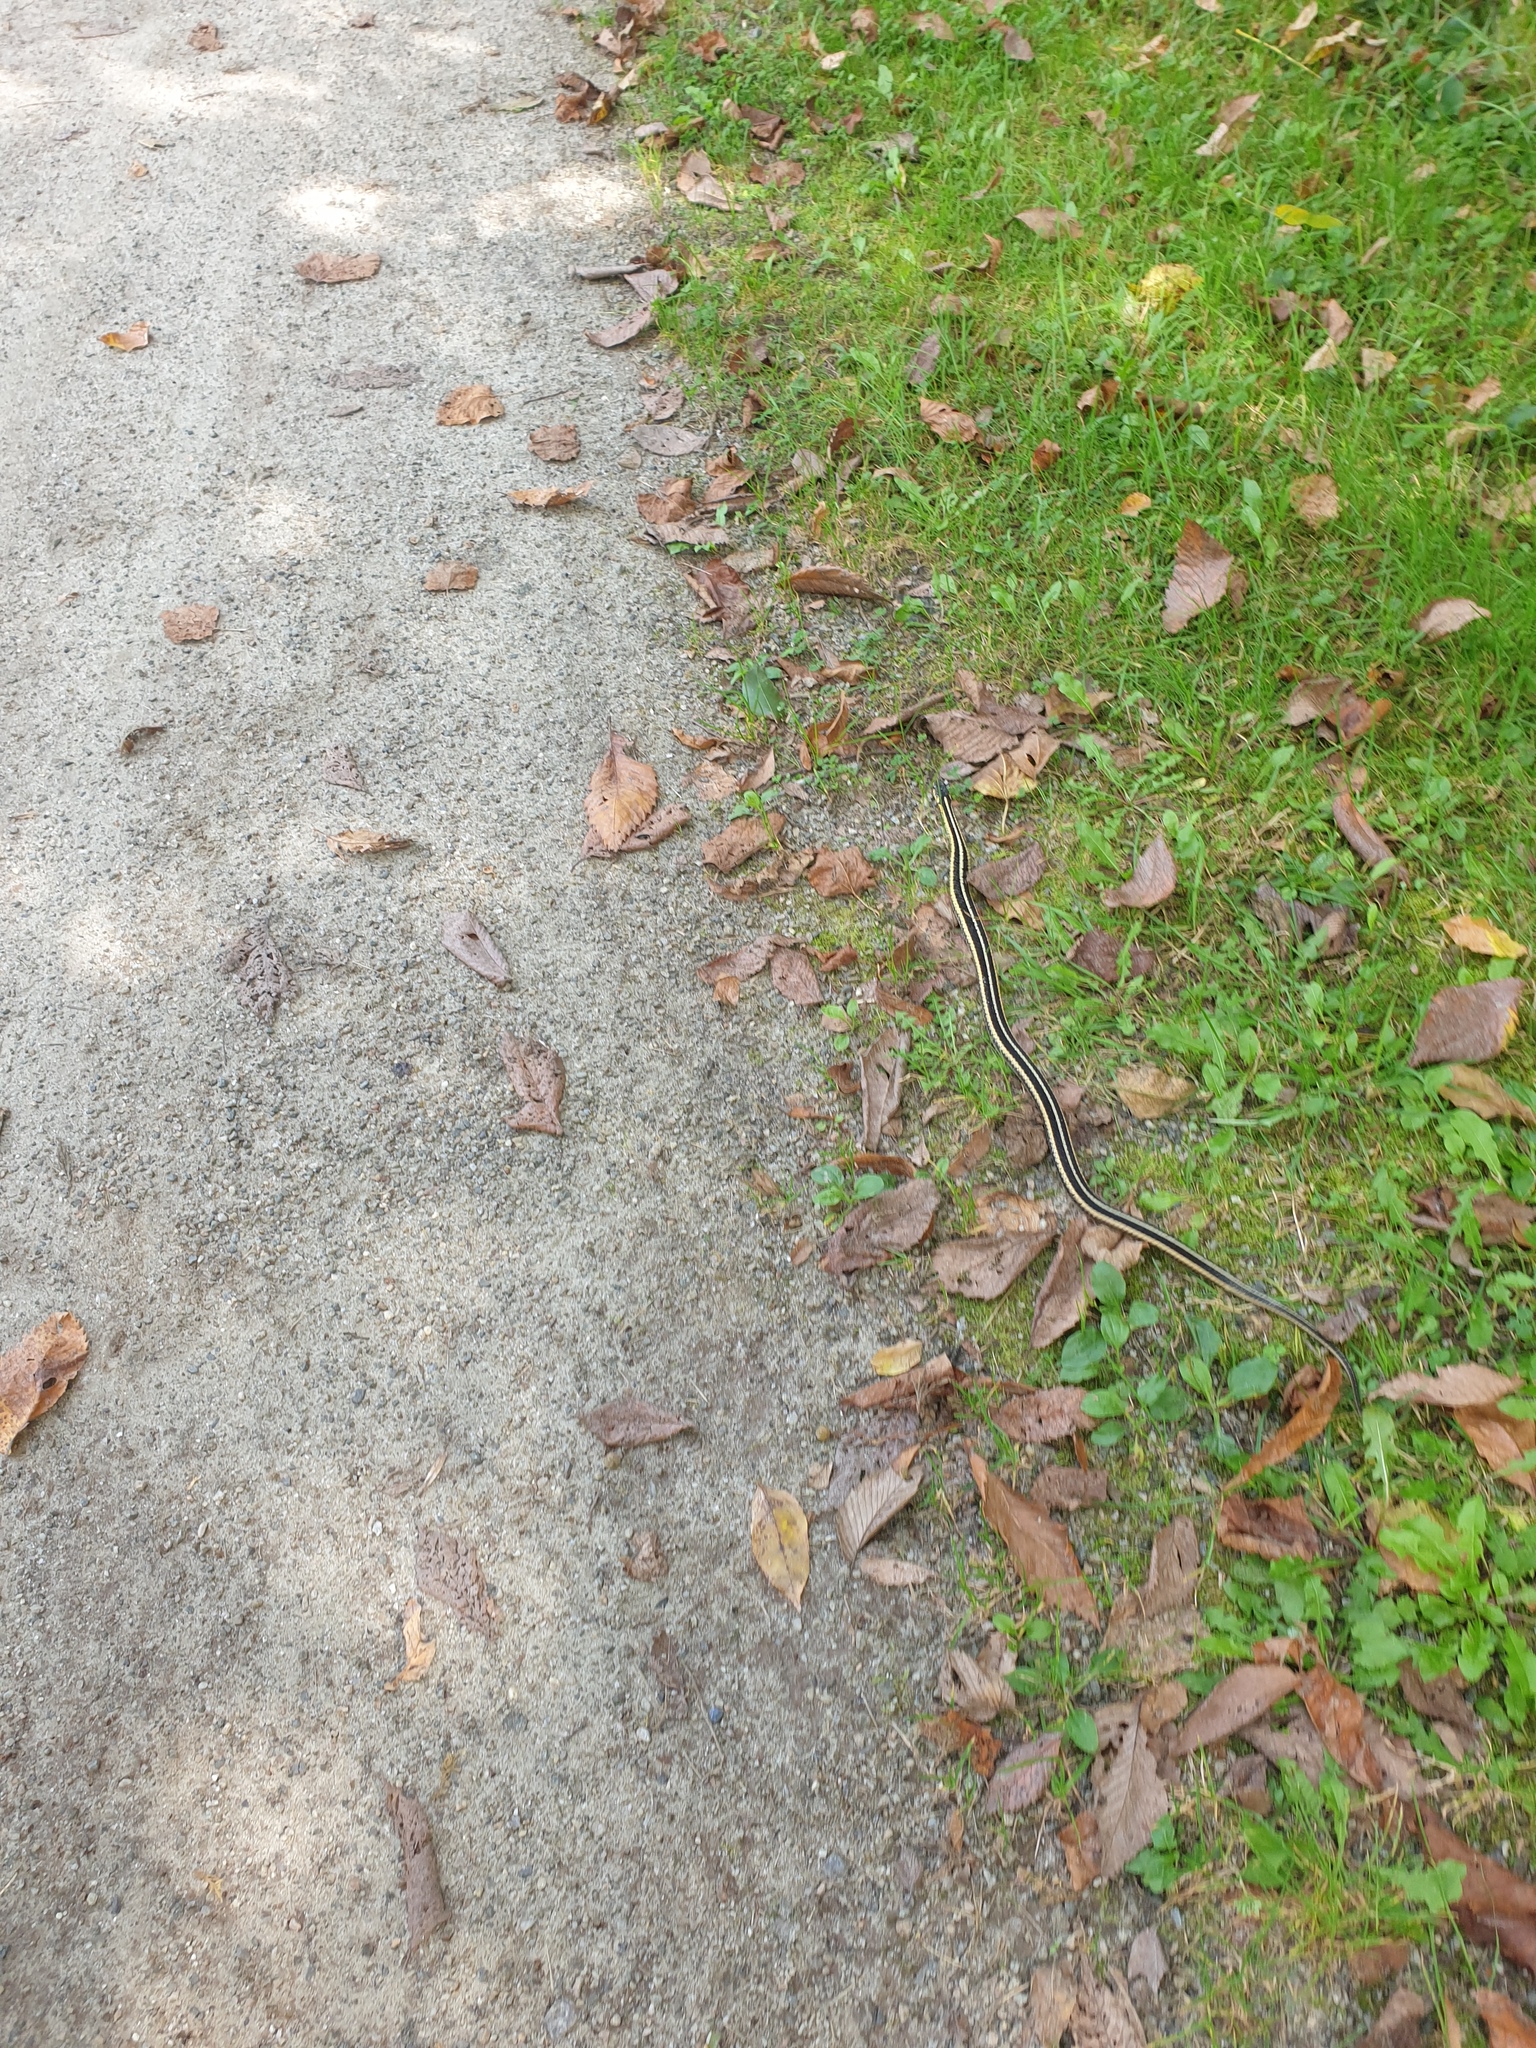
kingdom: Animalia
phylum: Chordata
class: Squamata
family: Colubridae
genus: Thamnophis
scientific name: Thamnophis sirtalis
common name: Common garter snake
